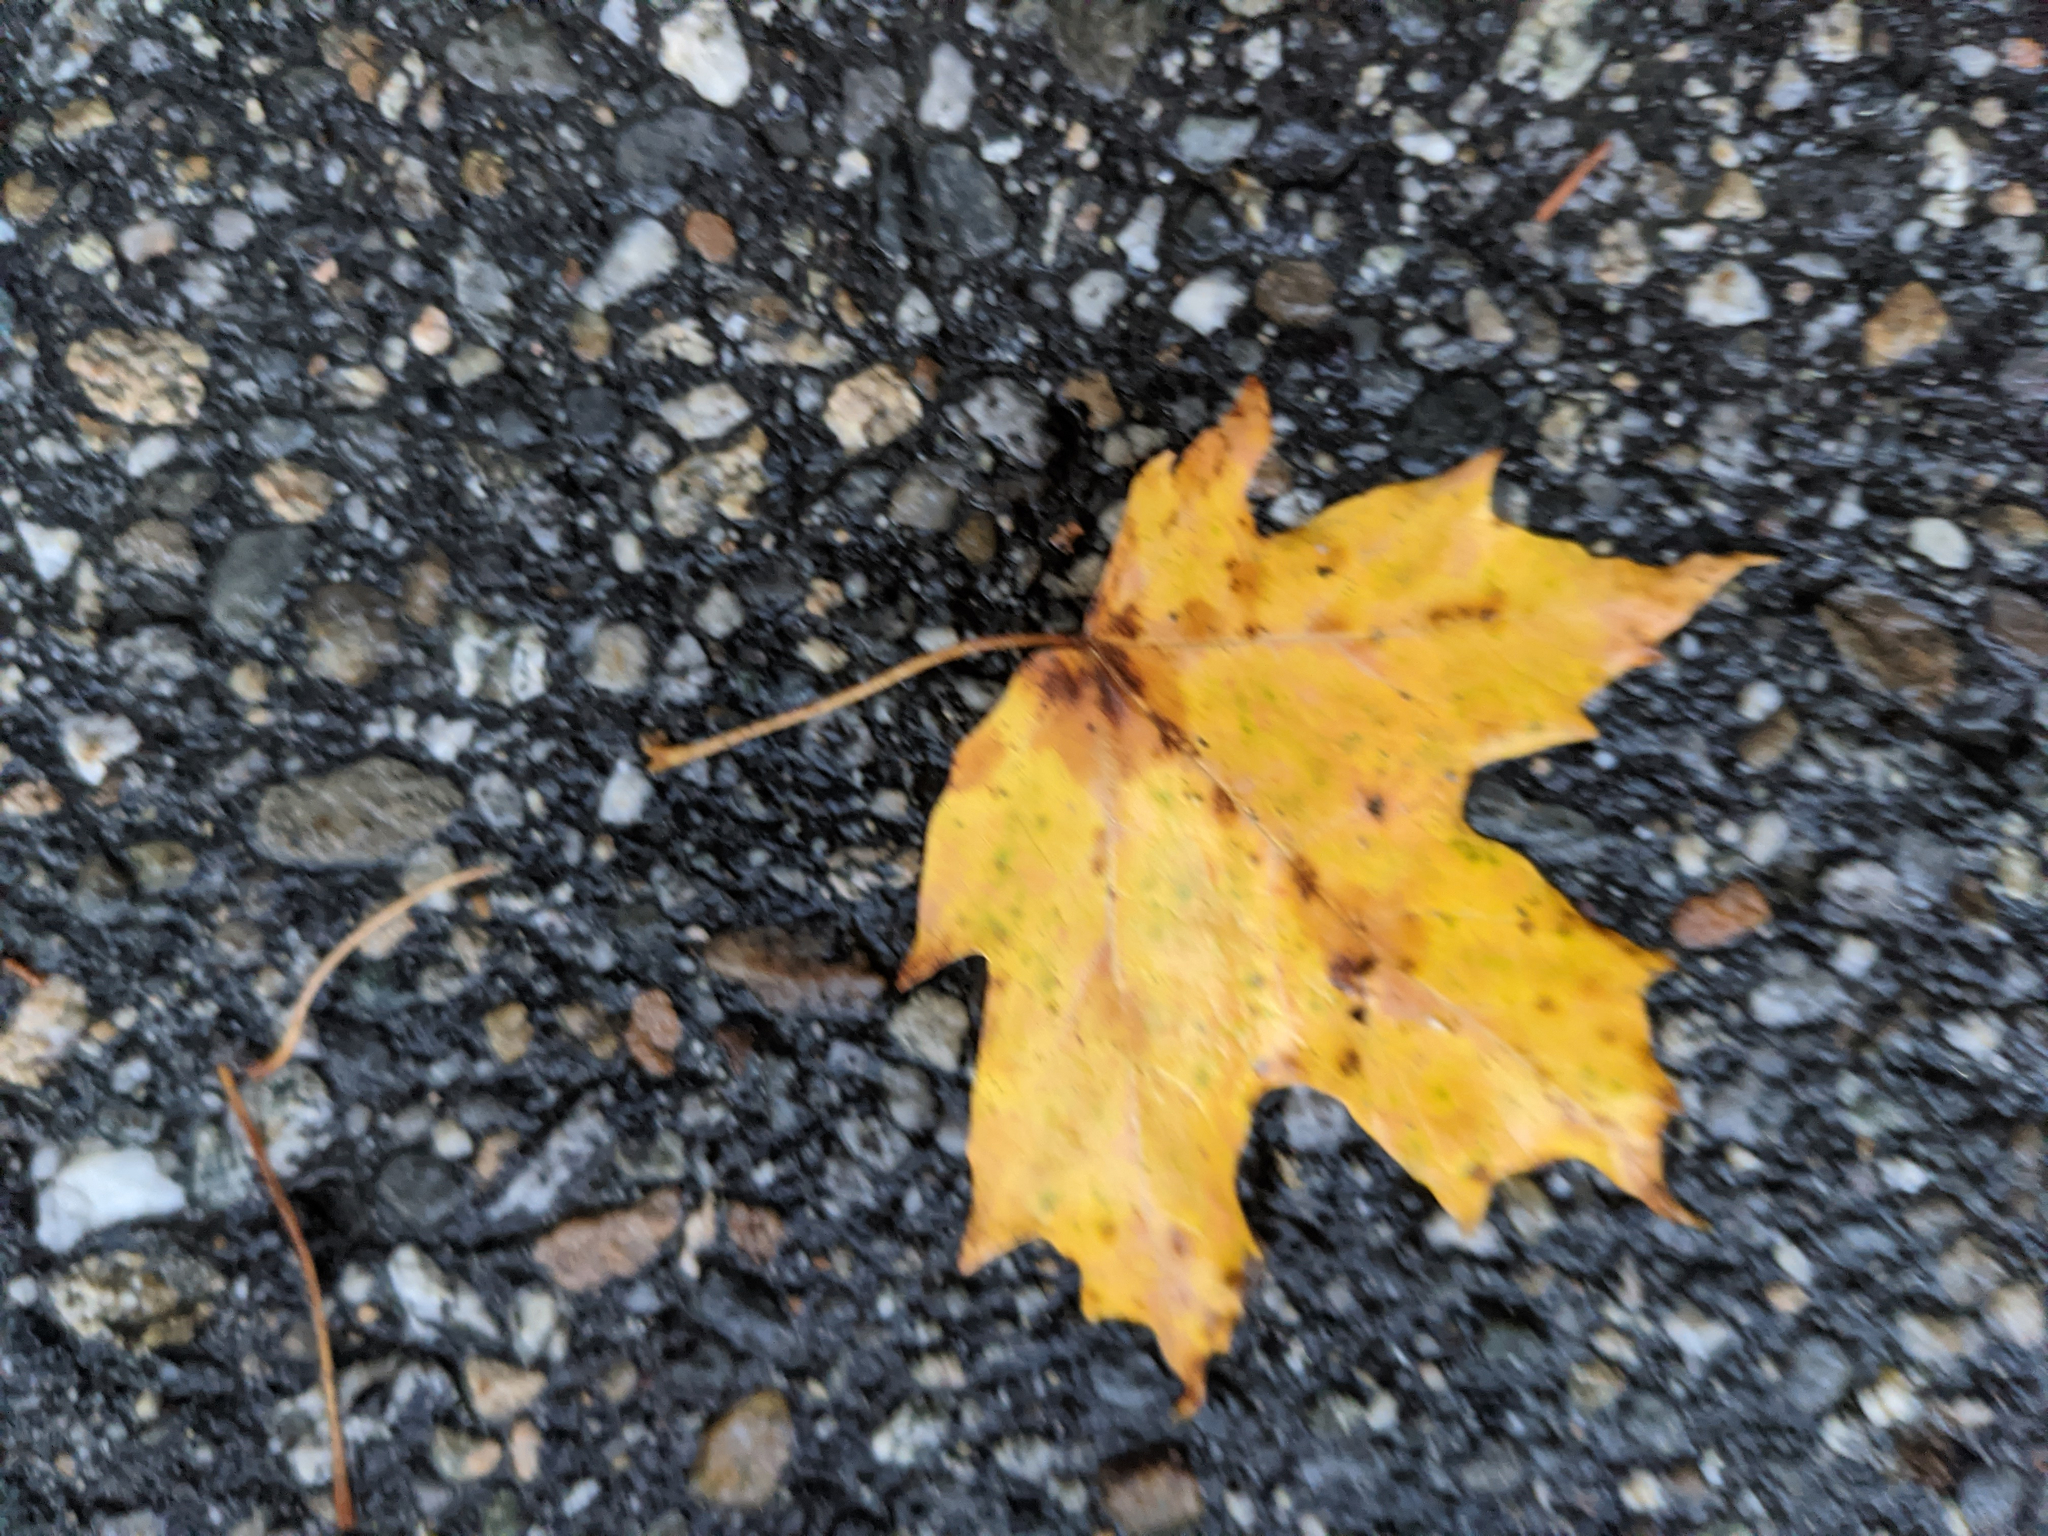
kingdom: Plantae
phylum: Tracheophyta
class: Magnoliopsida
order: Sapindales
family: Sapindaceae
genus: Acer
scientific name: Acer saccharum
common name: Sugar maple
